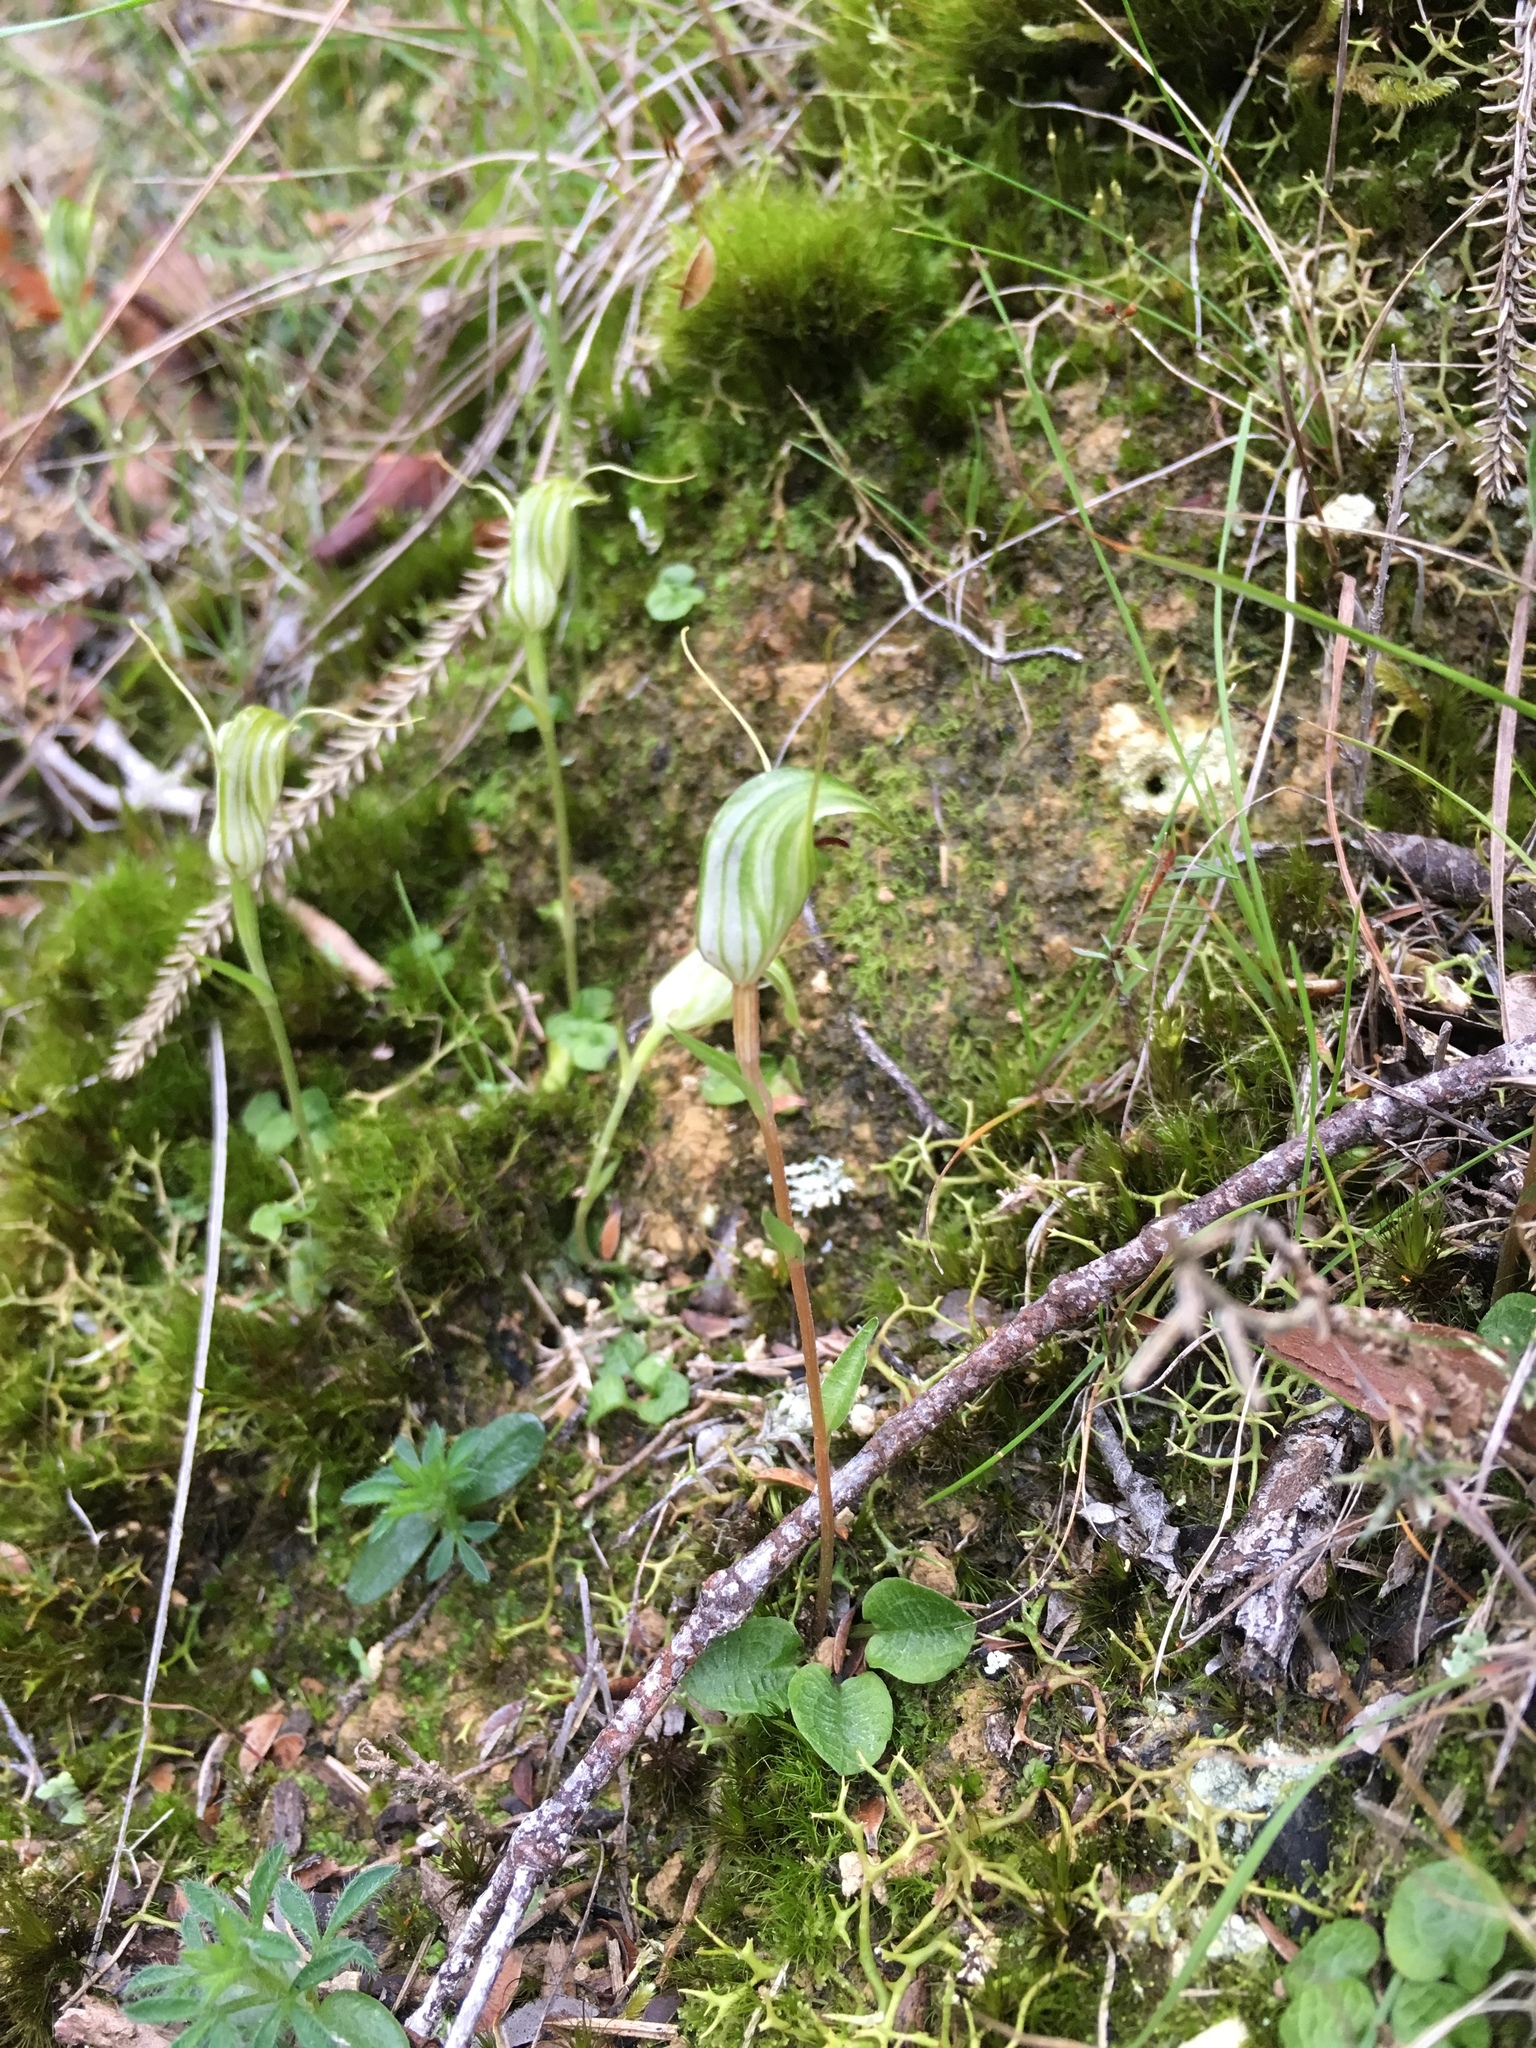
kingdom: Plantae
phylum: Tracheophyta
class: Liliopsida
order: Asparagales
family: Orchidaceae
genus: Pterostylis
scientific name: Pterostylis trullifolia
